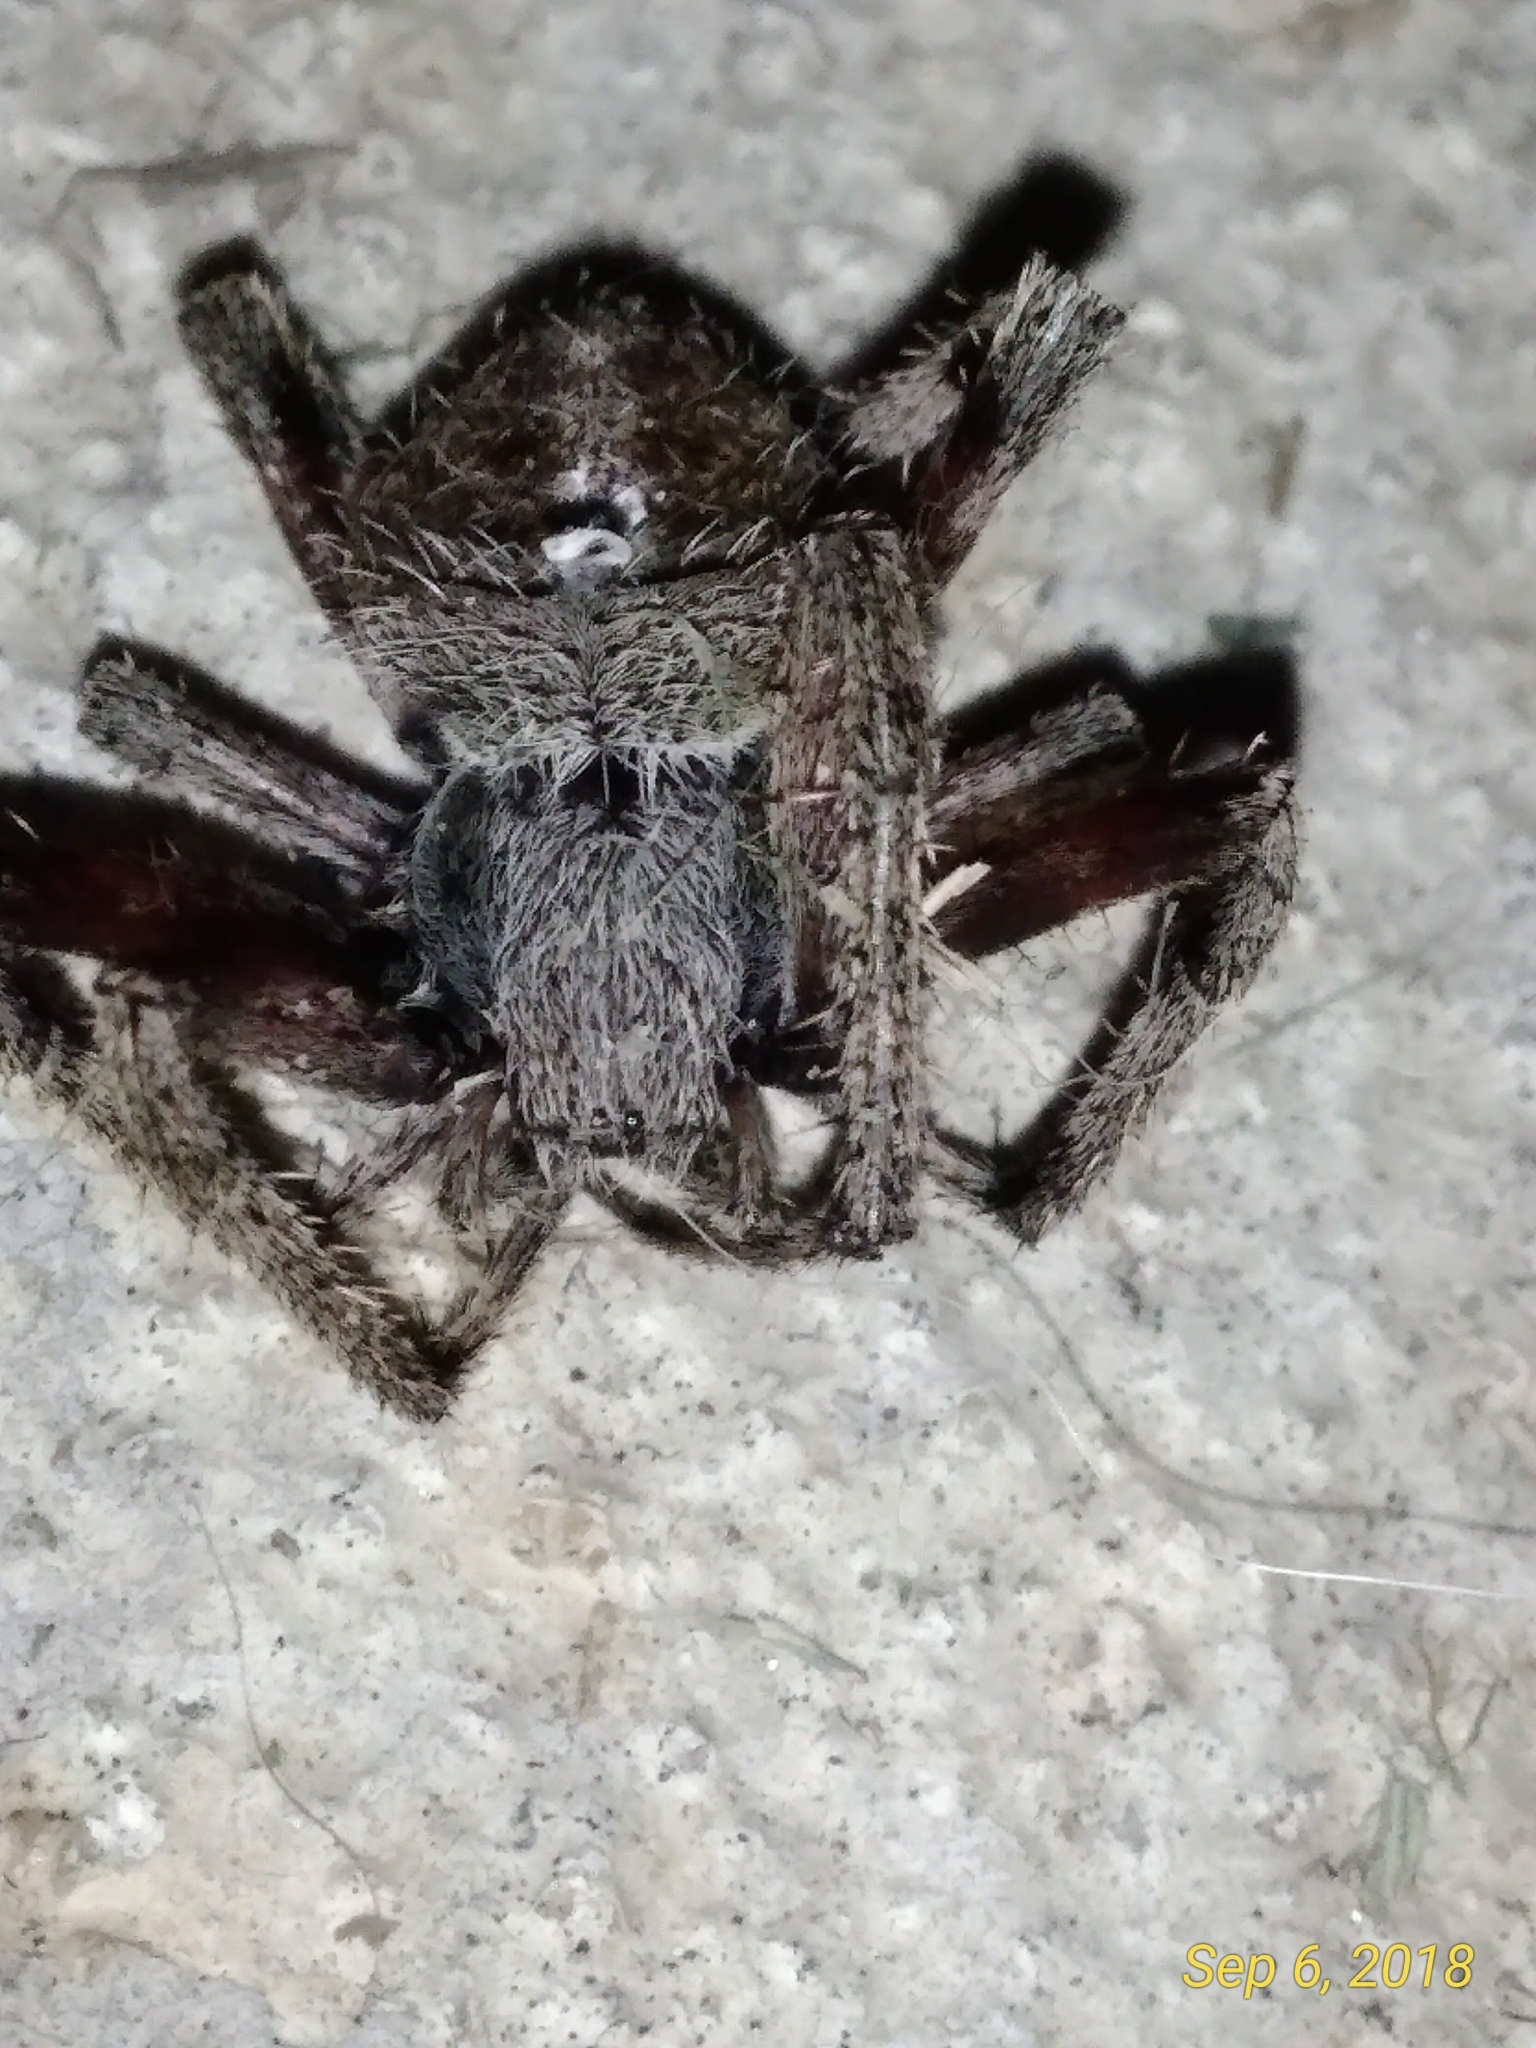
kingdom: Animalia
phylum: Arthropoda
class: Arachnida
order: Araneae
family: Araneidae
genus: Neoscona
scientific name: Neoscona crucifera
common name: Spotted orbweaver
